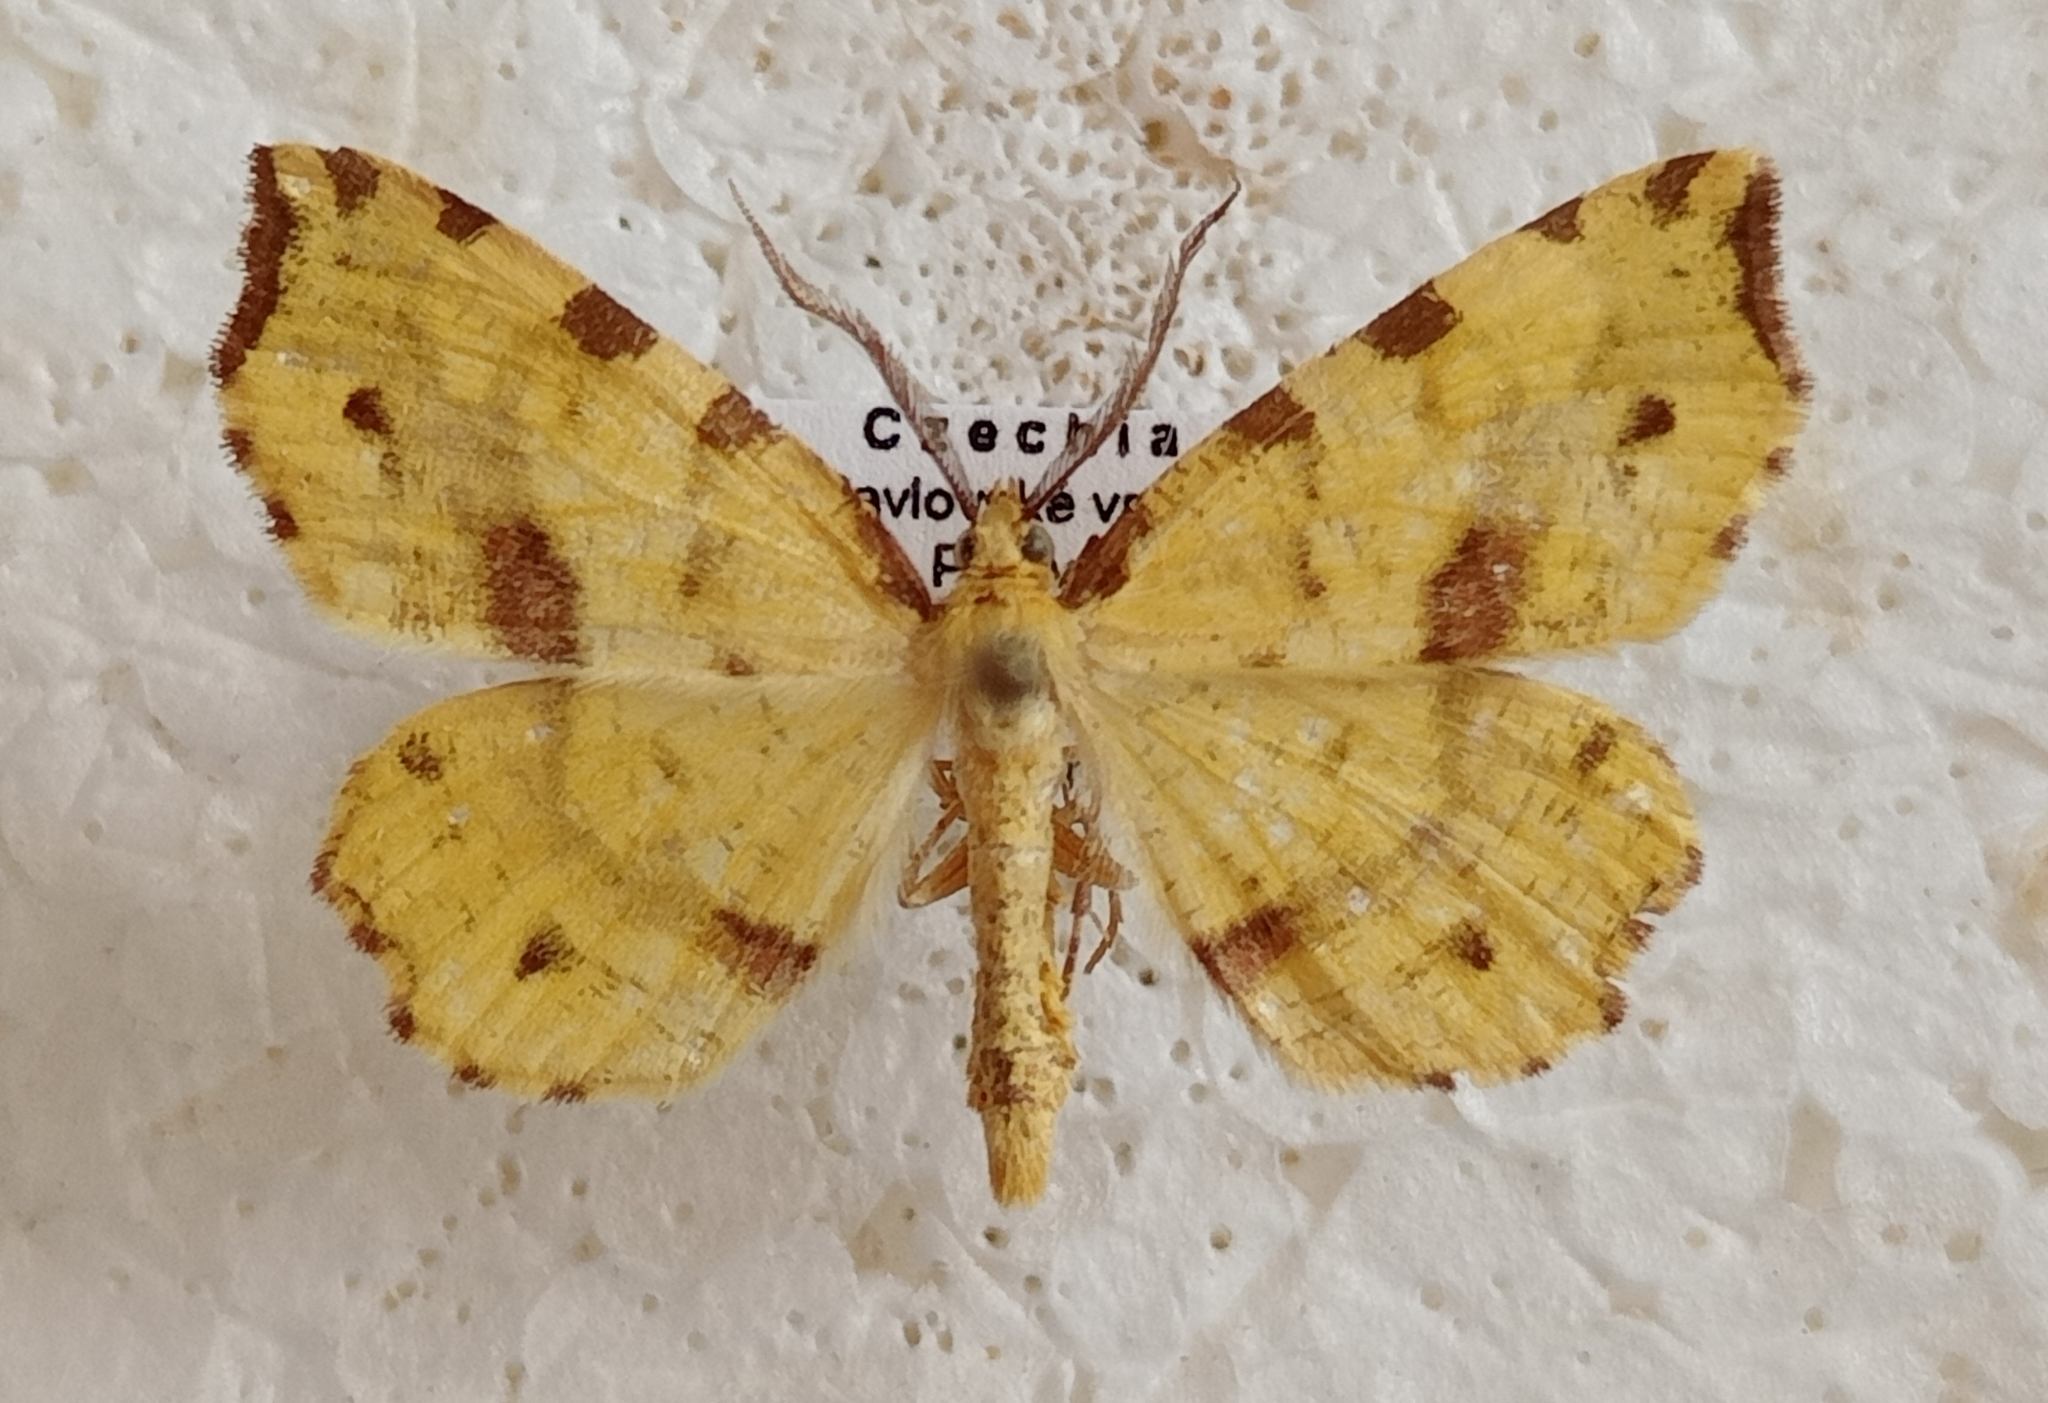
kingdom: Animalia
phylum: Arthropoda
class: Insecta
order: Lepidoptera
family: Geometridae
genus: Therapis
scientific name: Therapis flavicaria
